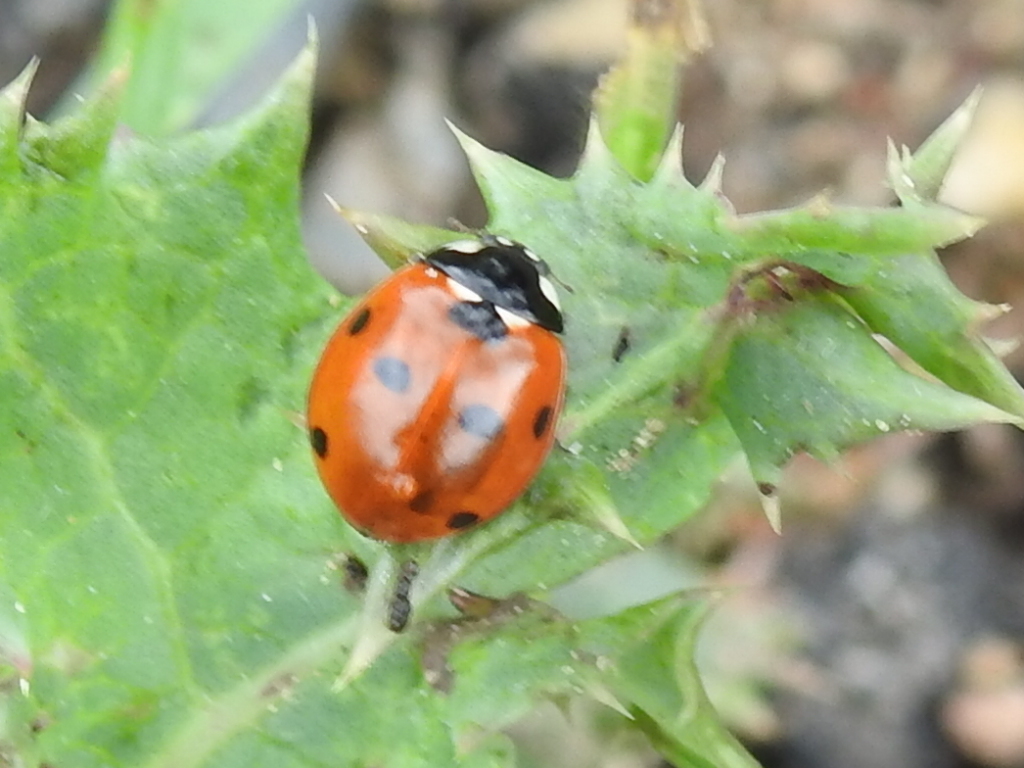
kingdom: Animalia
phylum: Arthropoda
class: Insecta
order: Coleoptera
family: Coccinellidae
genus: Coccinella
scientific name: Coccinella septempunctata
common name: Sevenspotted lady beetle
